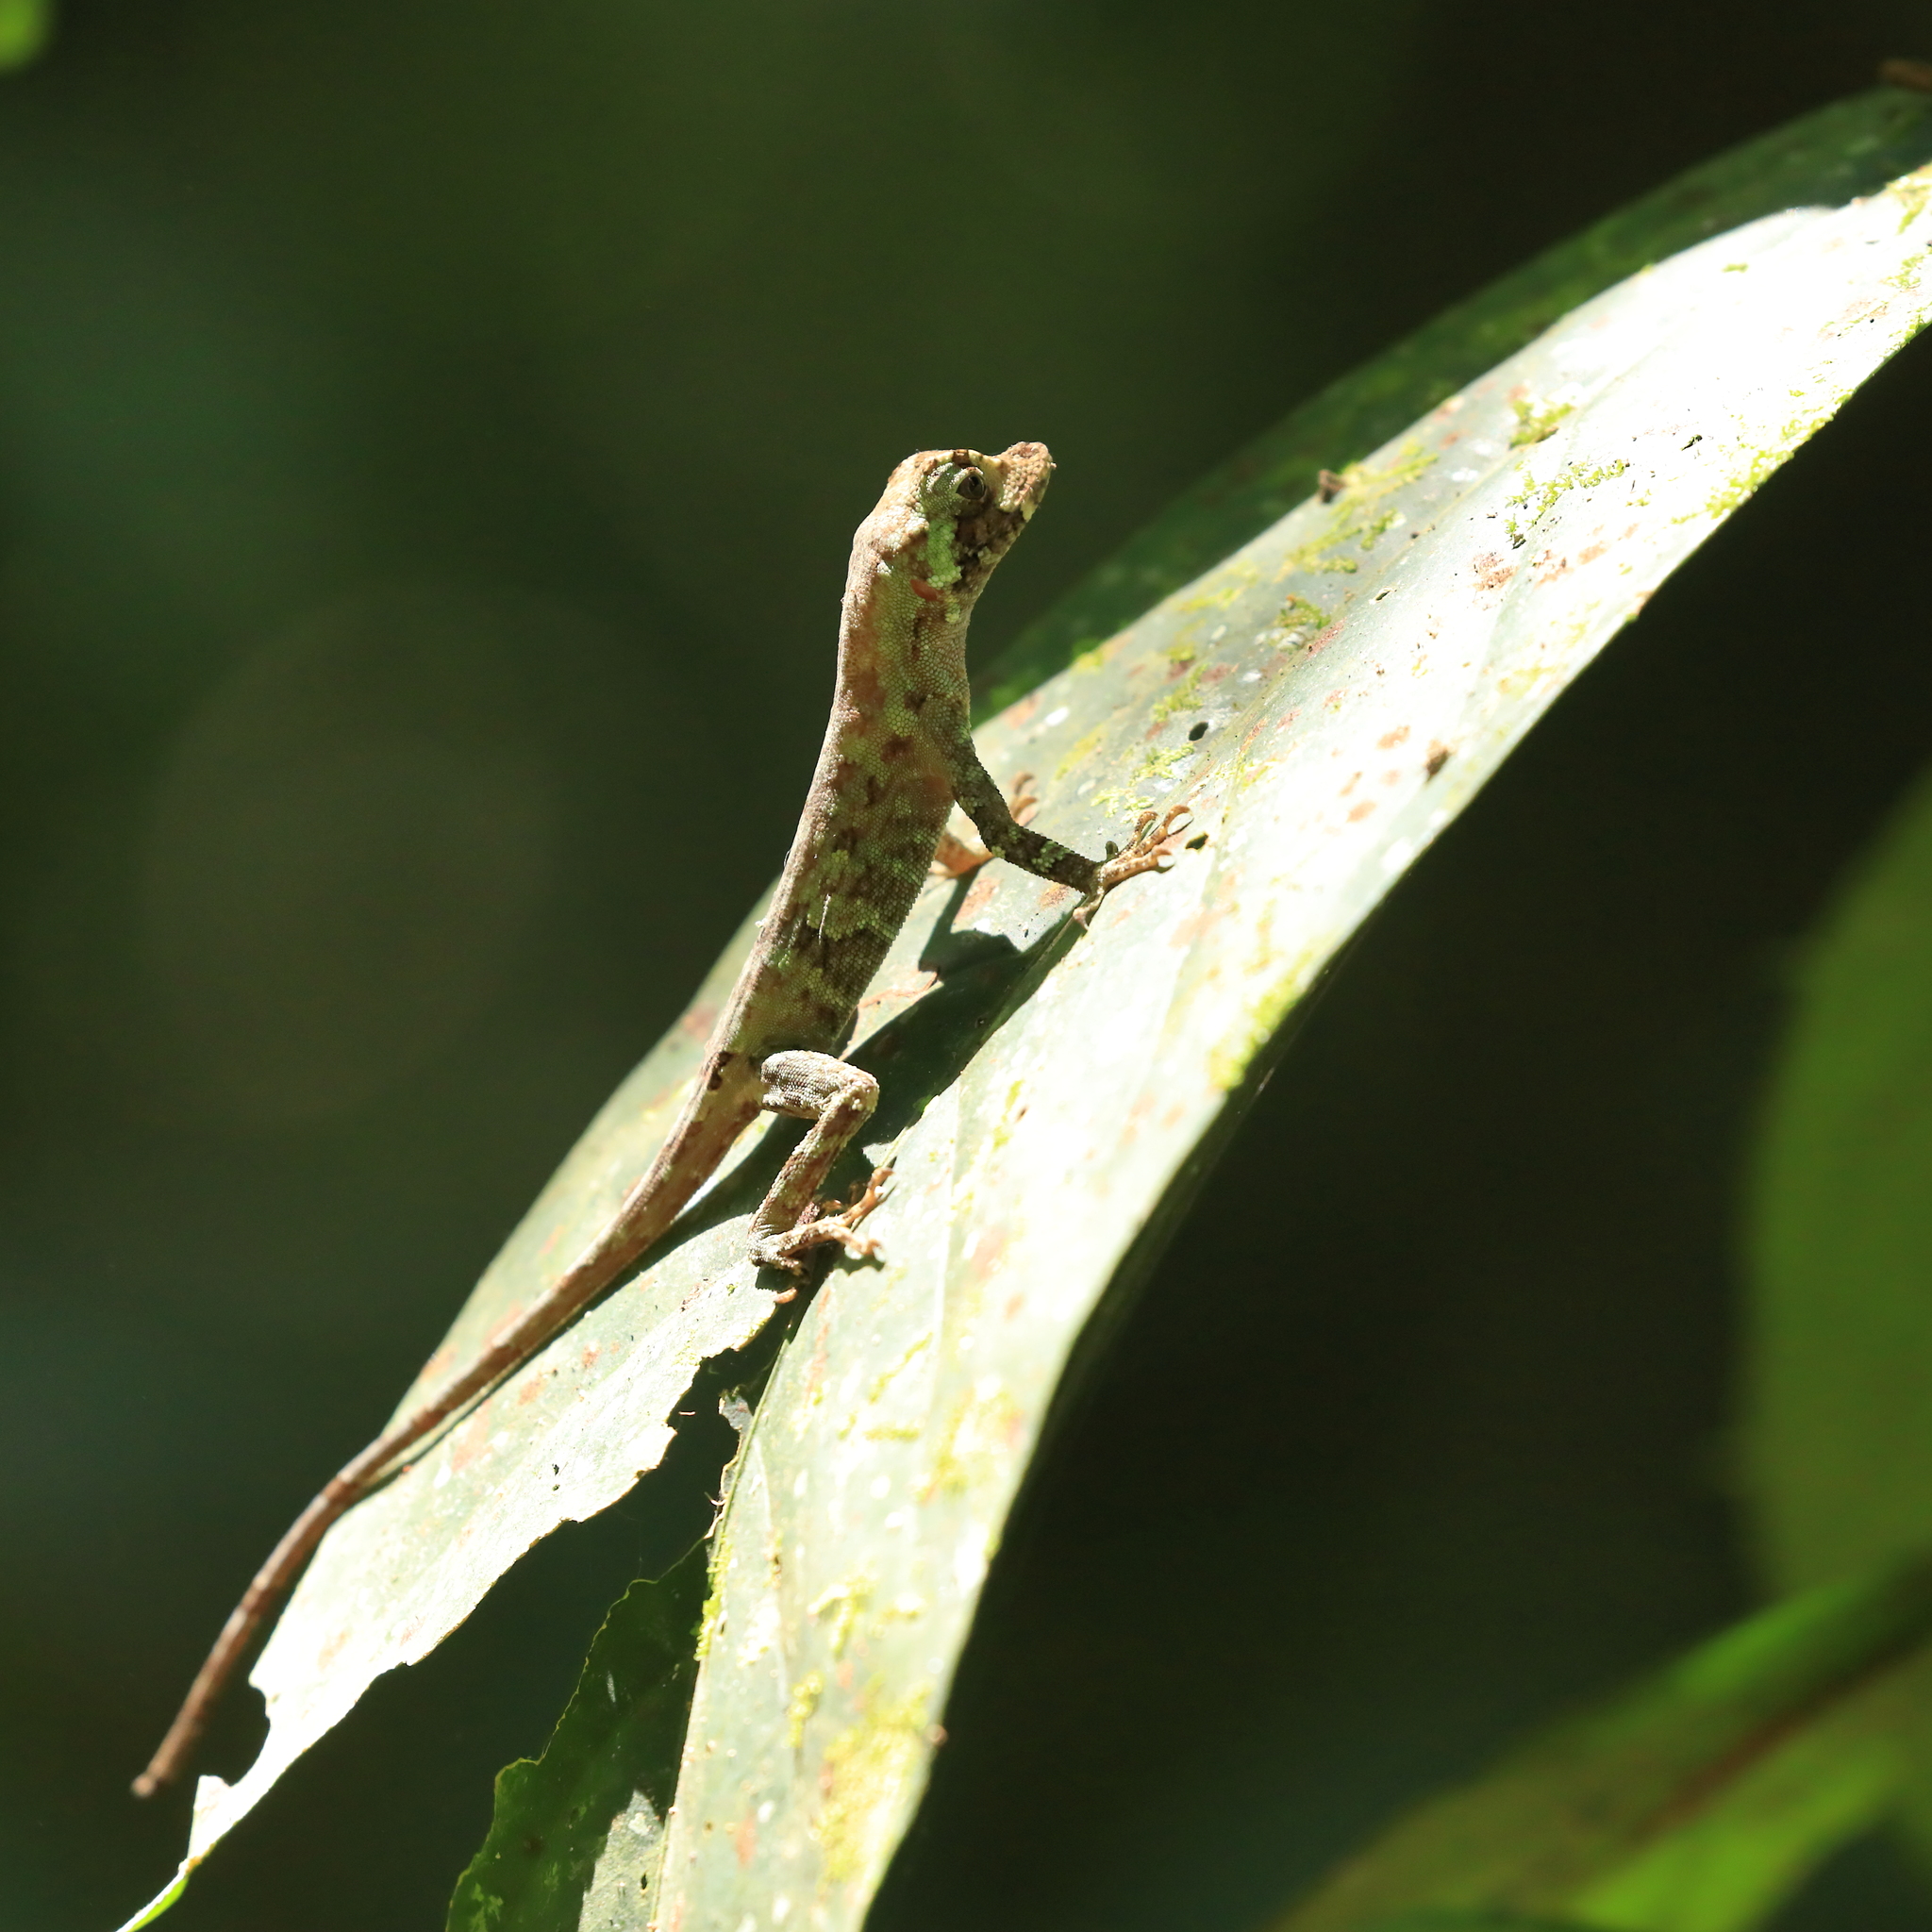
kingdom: Animalia
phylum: Chordata
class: Squamata
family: Dactyloidae
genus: Anolis
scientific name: Anolis capito
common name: Bighead anole
